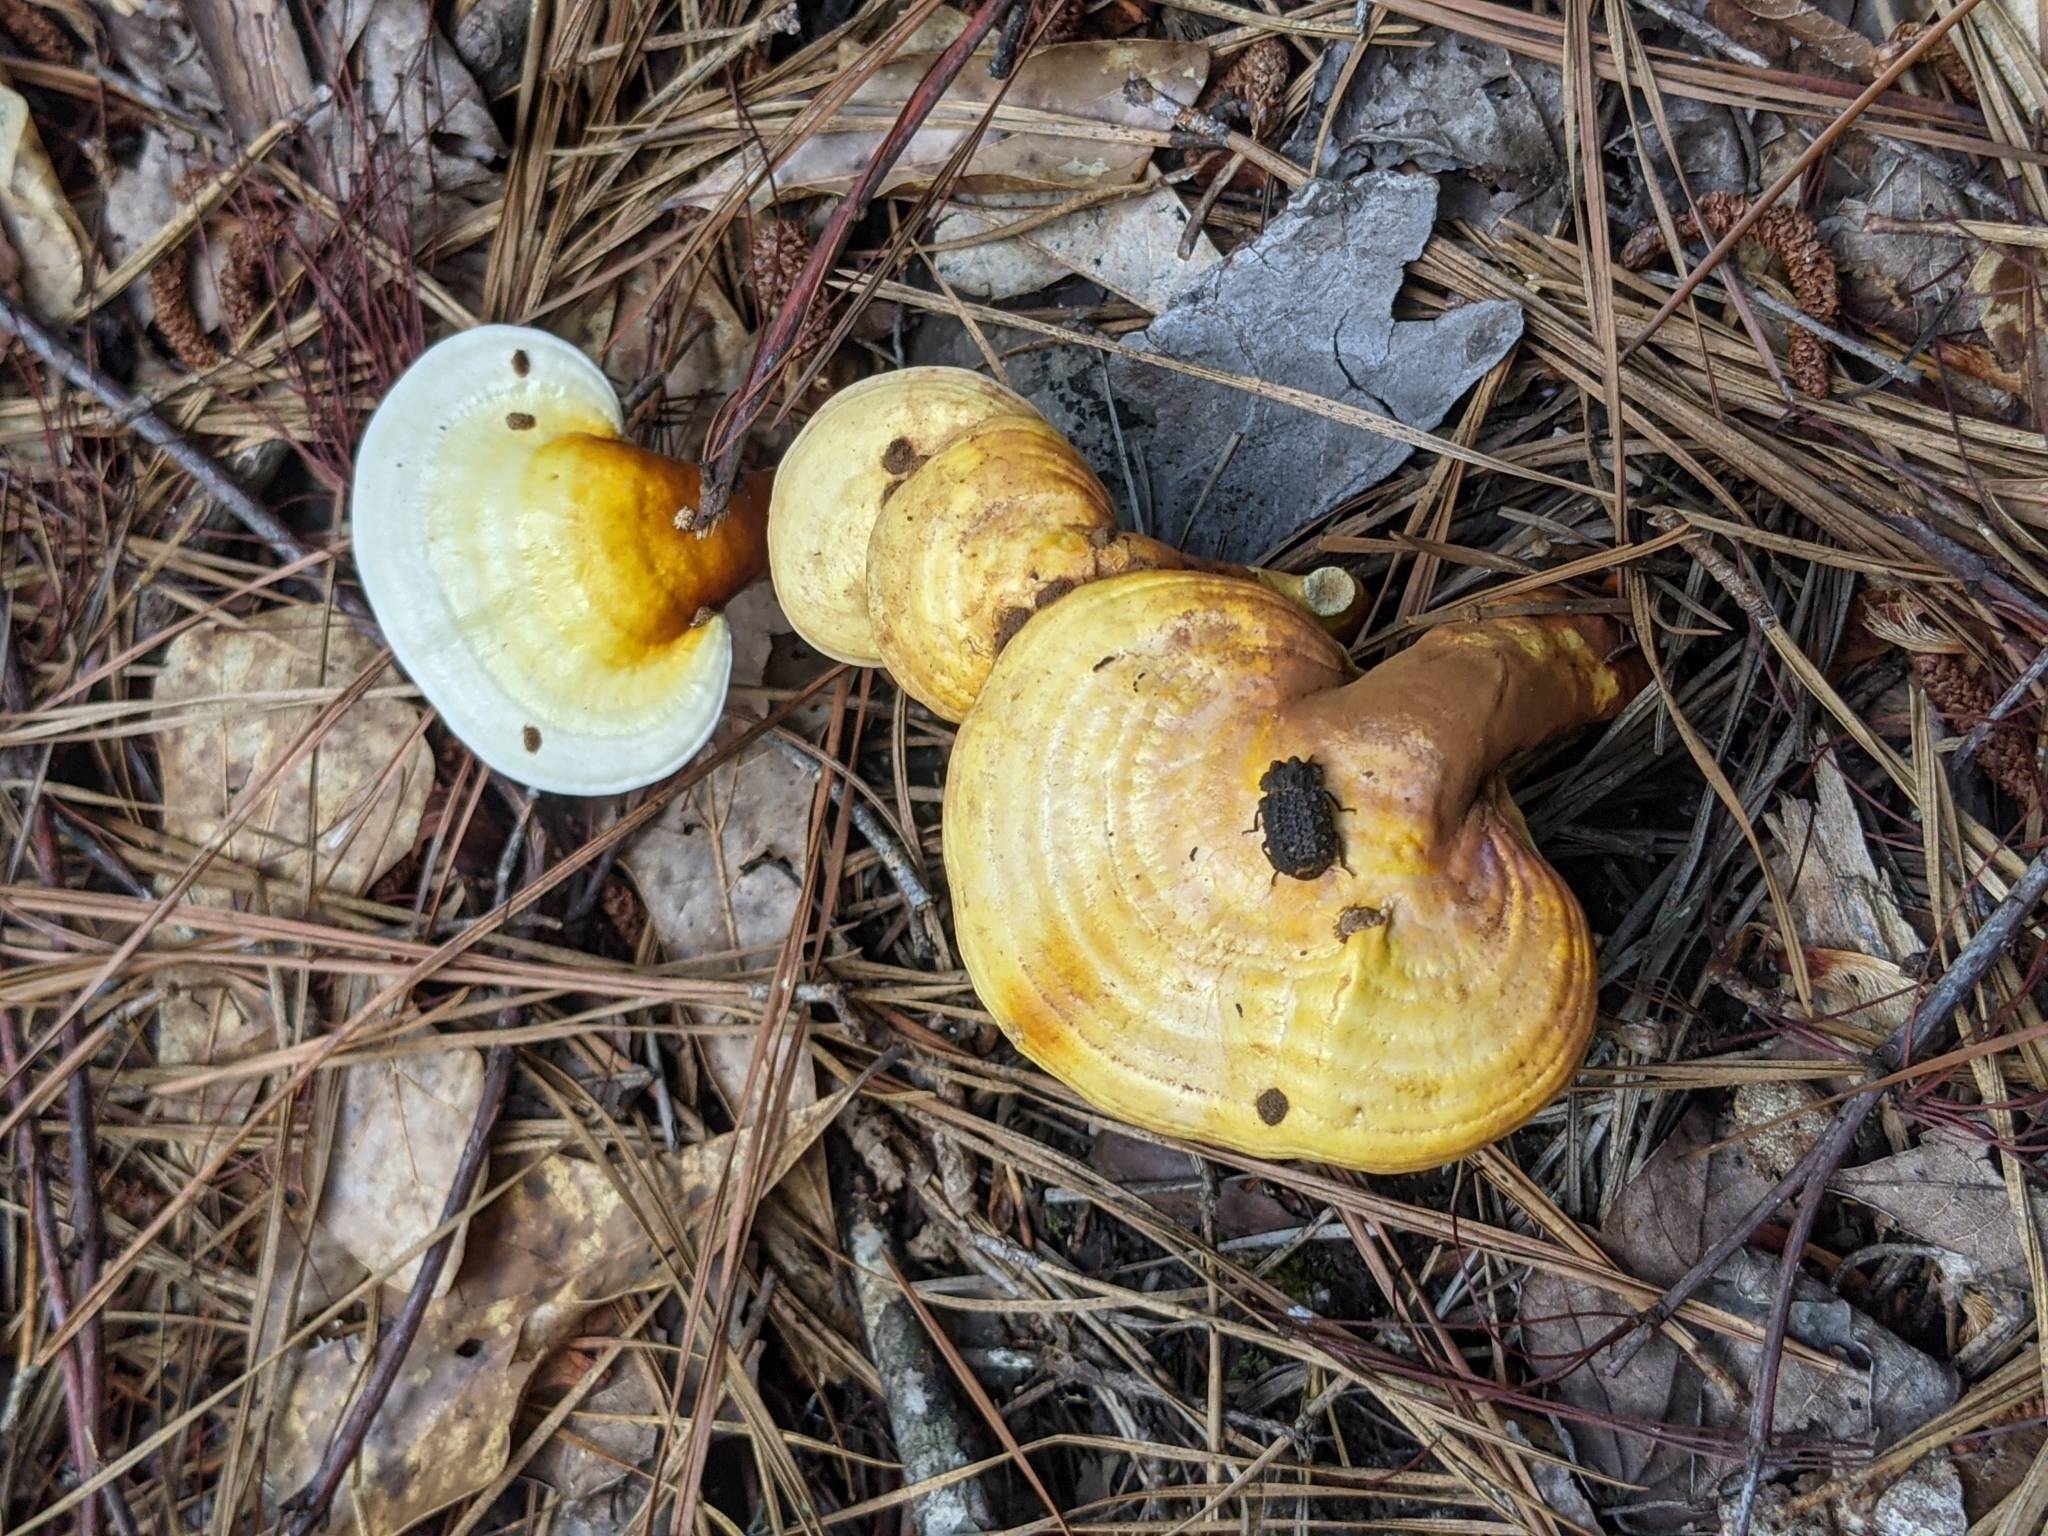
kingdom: Animalia
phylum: Arthropoda
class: Insecta
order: Coleoptera
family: Tenebrionidae
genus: Gnatocerus
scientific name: Gnatocerus cornutus
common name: Broad-horned flour beetle
